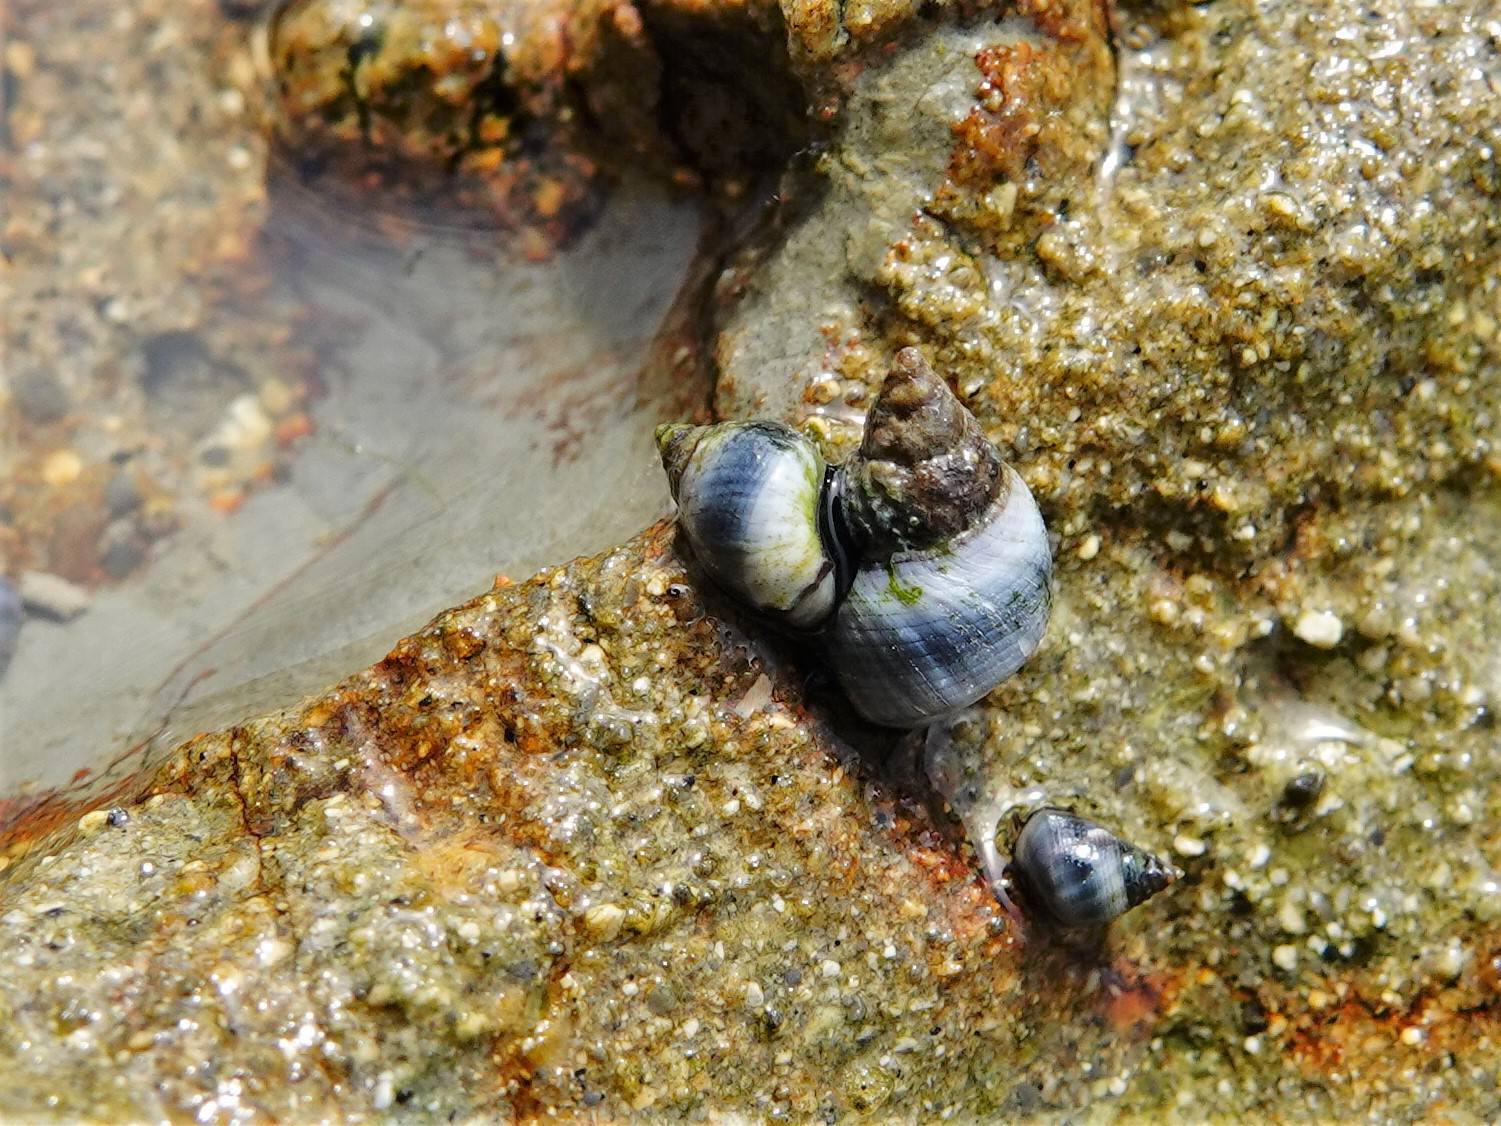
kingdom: Animalia
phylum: Mollusca
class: Gastropoda
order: Littorinimorpha
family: Littorinidae
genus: Austrolittorina
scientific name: Austrolittorina antipodum
